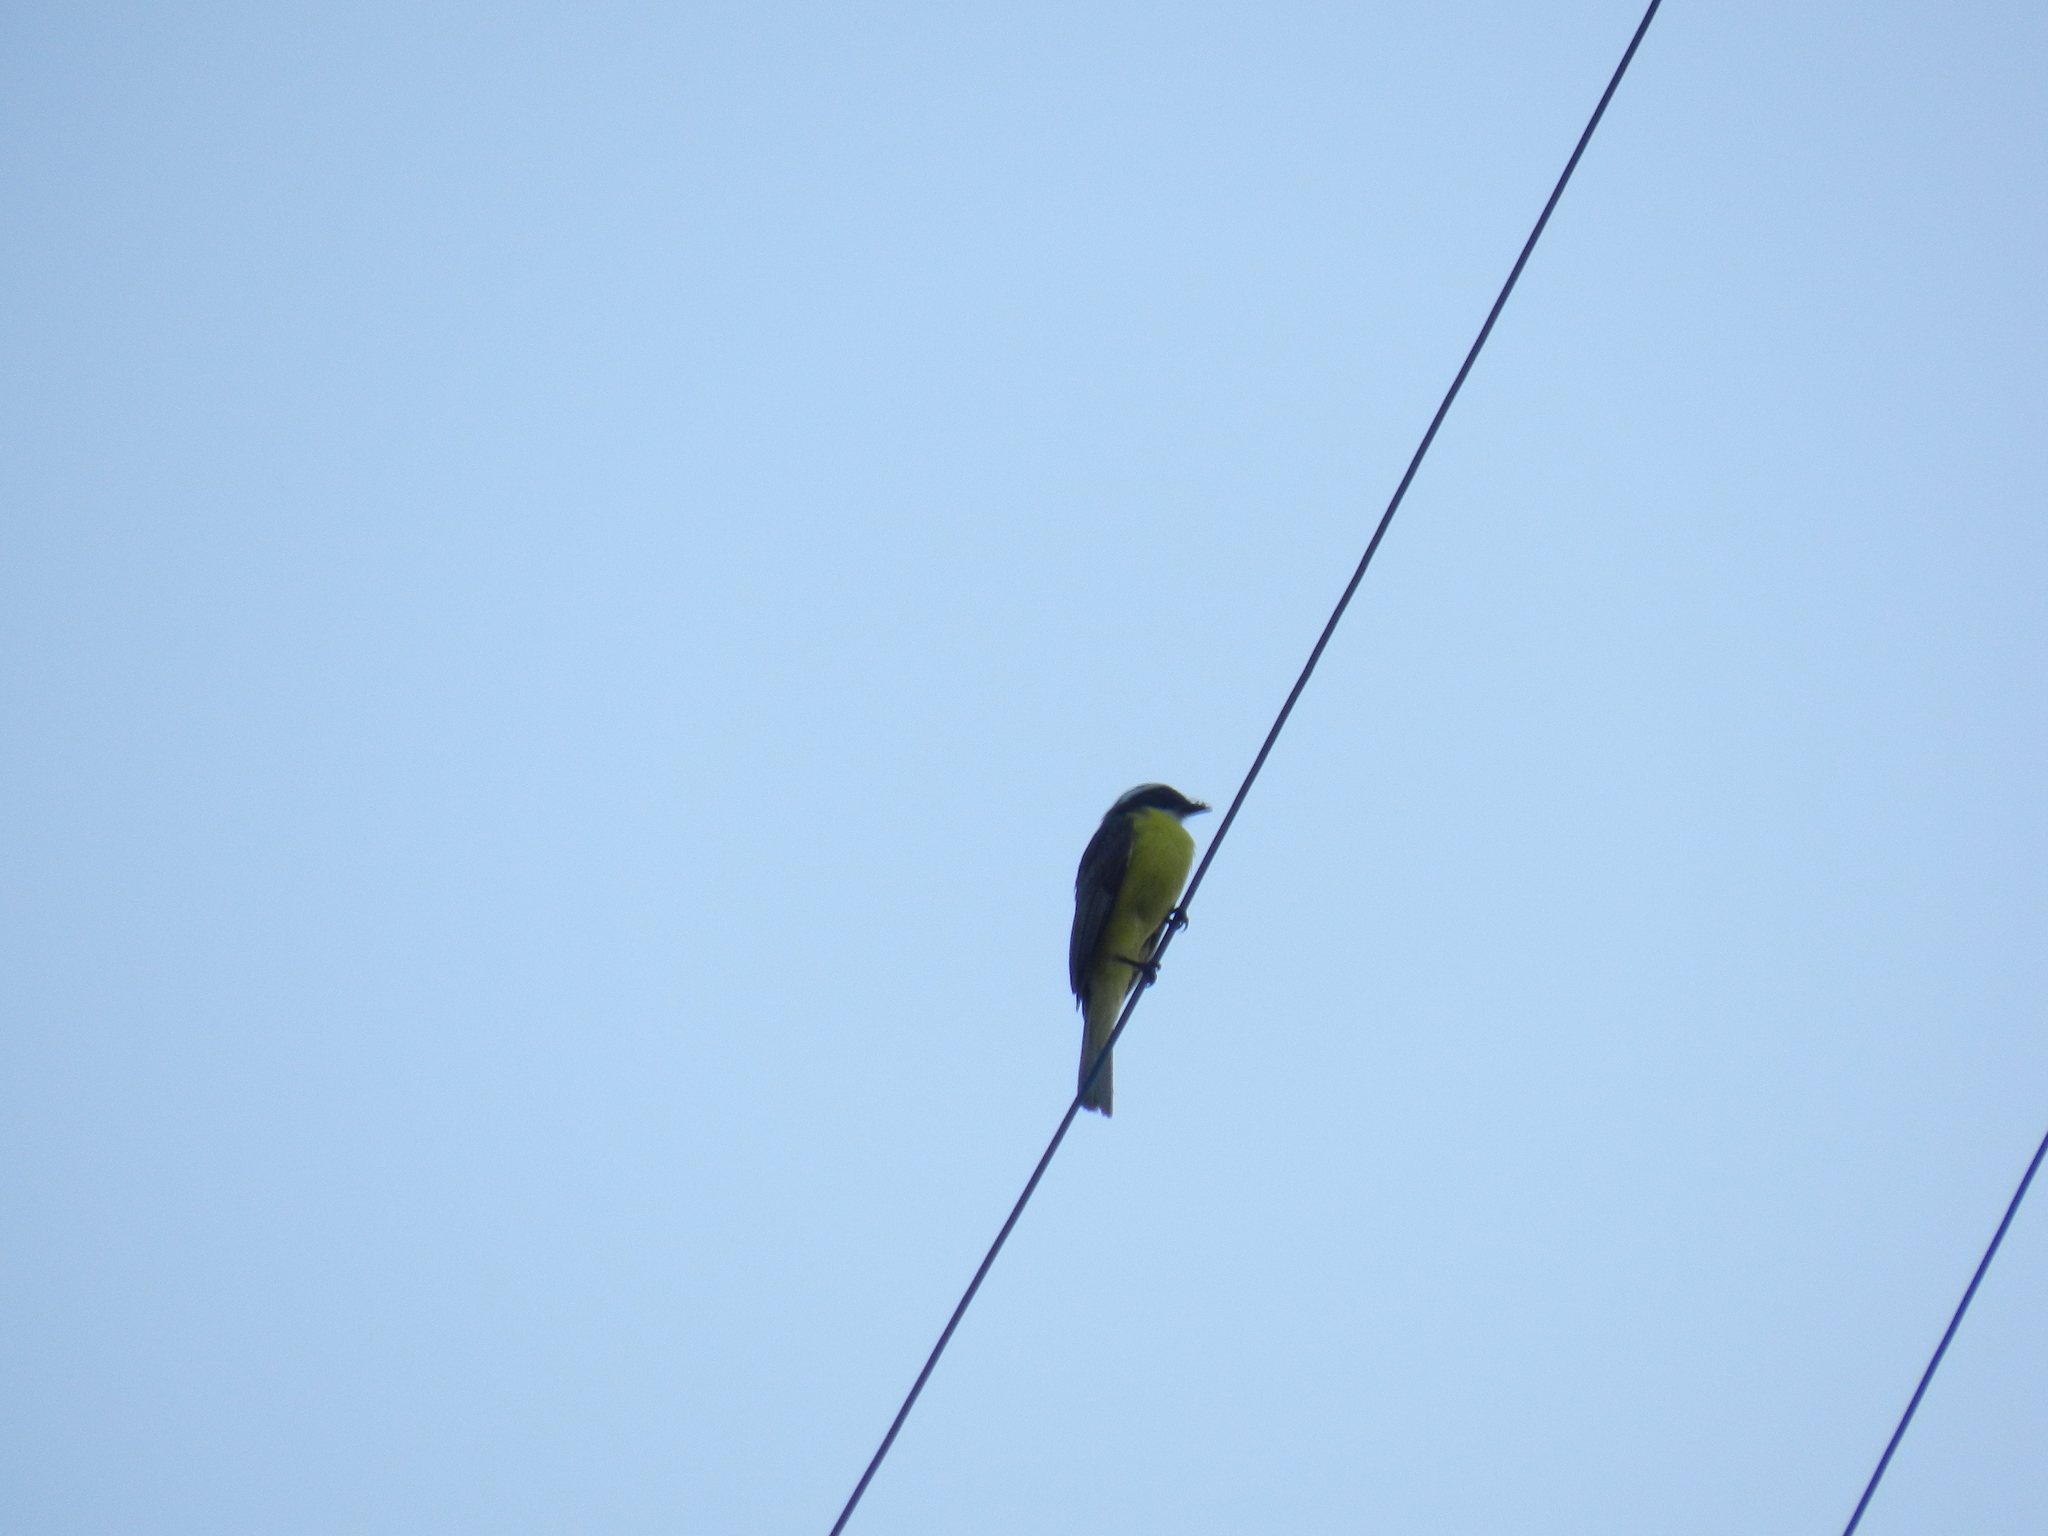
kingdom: Animalia
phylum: Chordata
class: Aves
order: Passeriformes
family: Tyrannidae
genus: Myiozetetes
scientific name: Myiozetetes similis
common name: Social flycatcher
